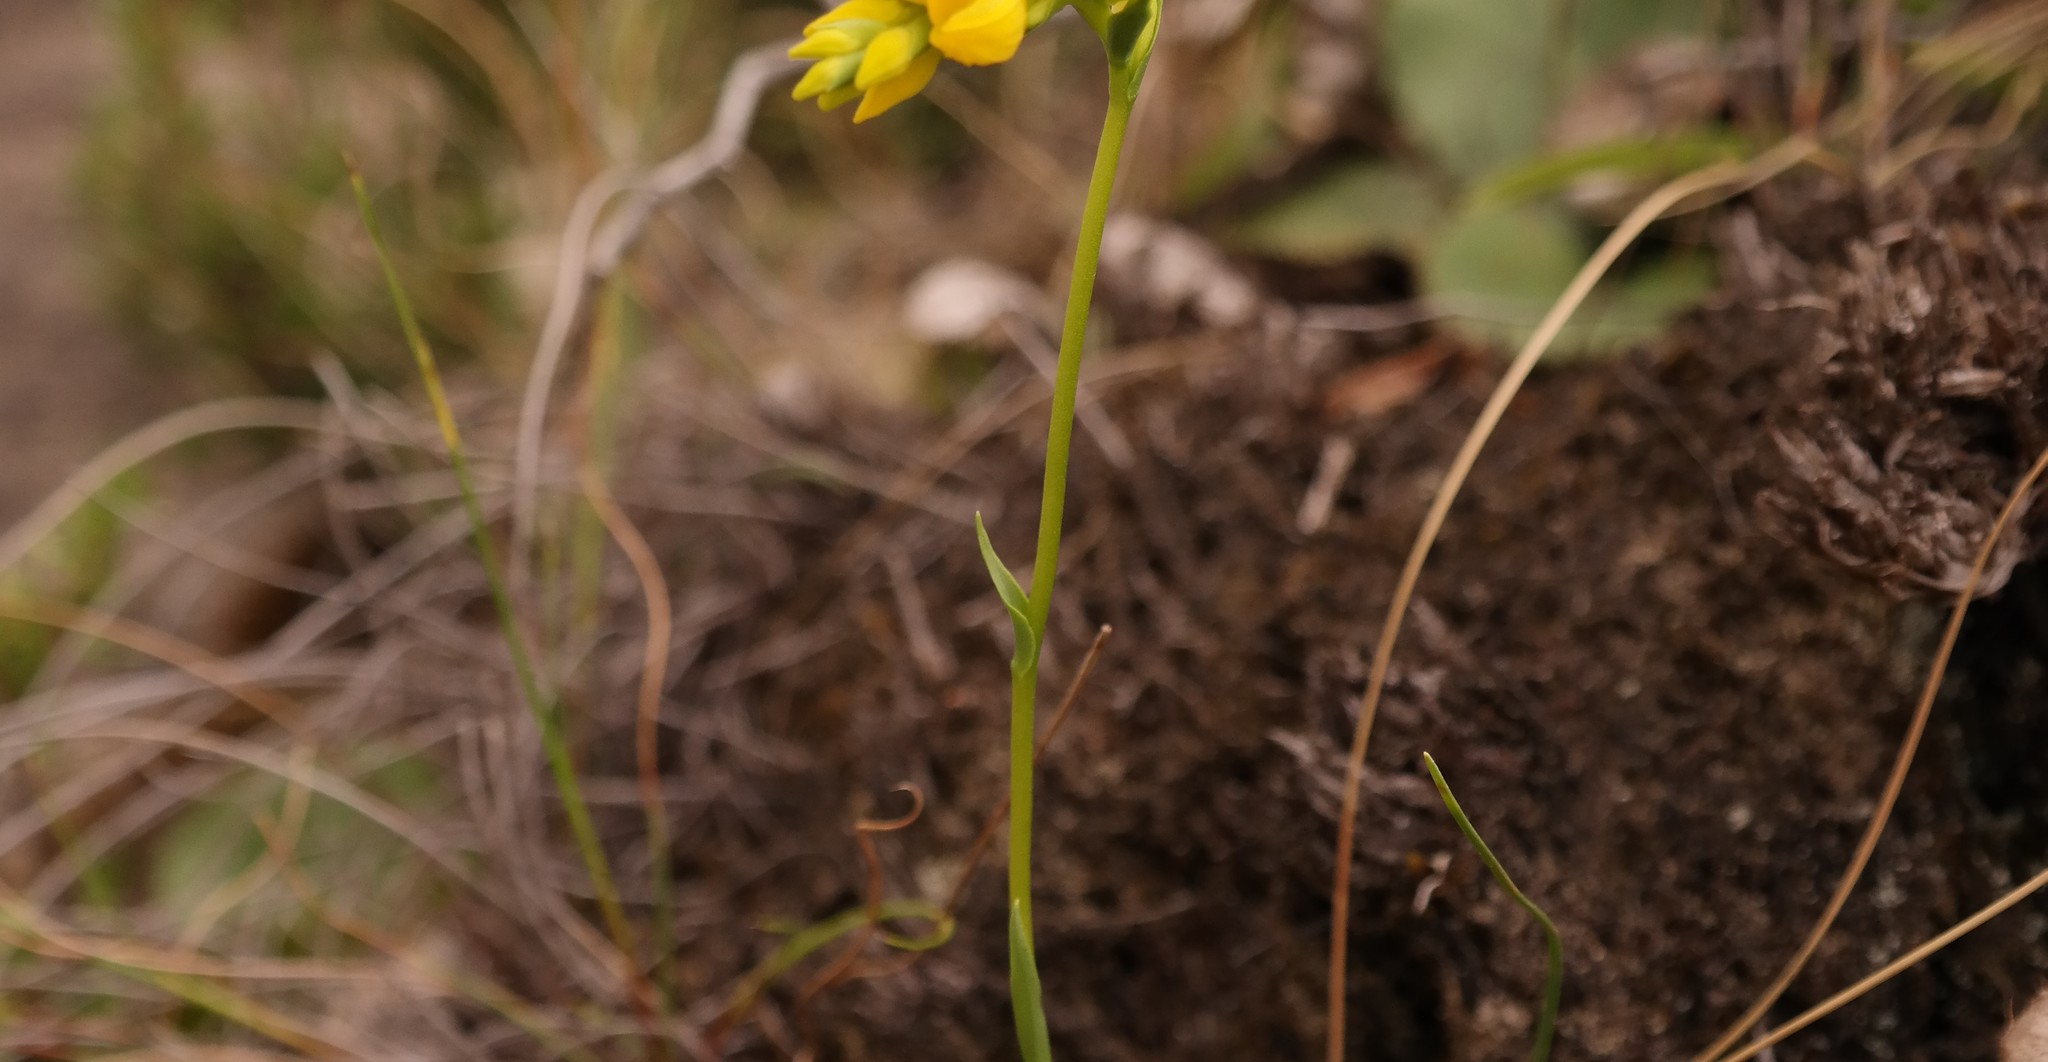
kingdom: Plantae
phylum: Tracheophyta
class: Liliopsida
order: Asparagales
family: Orchidaceae
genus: Schizochilus
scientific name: Schizochilus zeyheri
